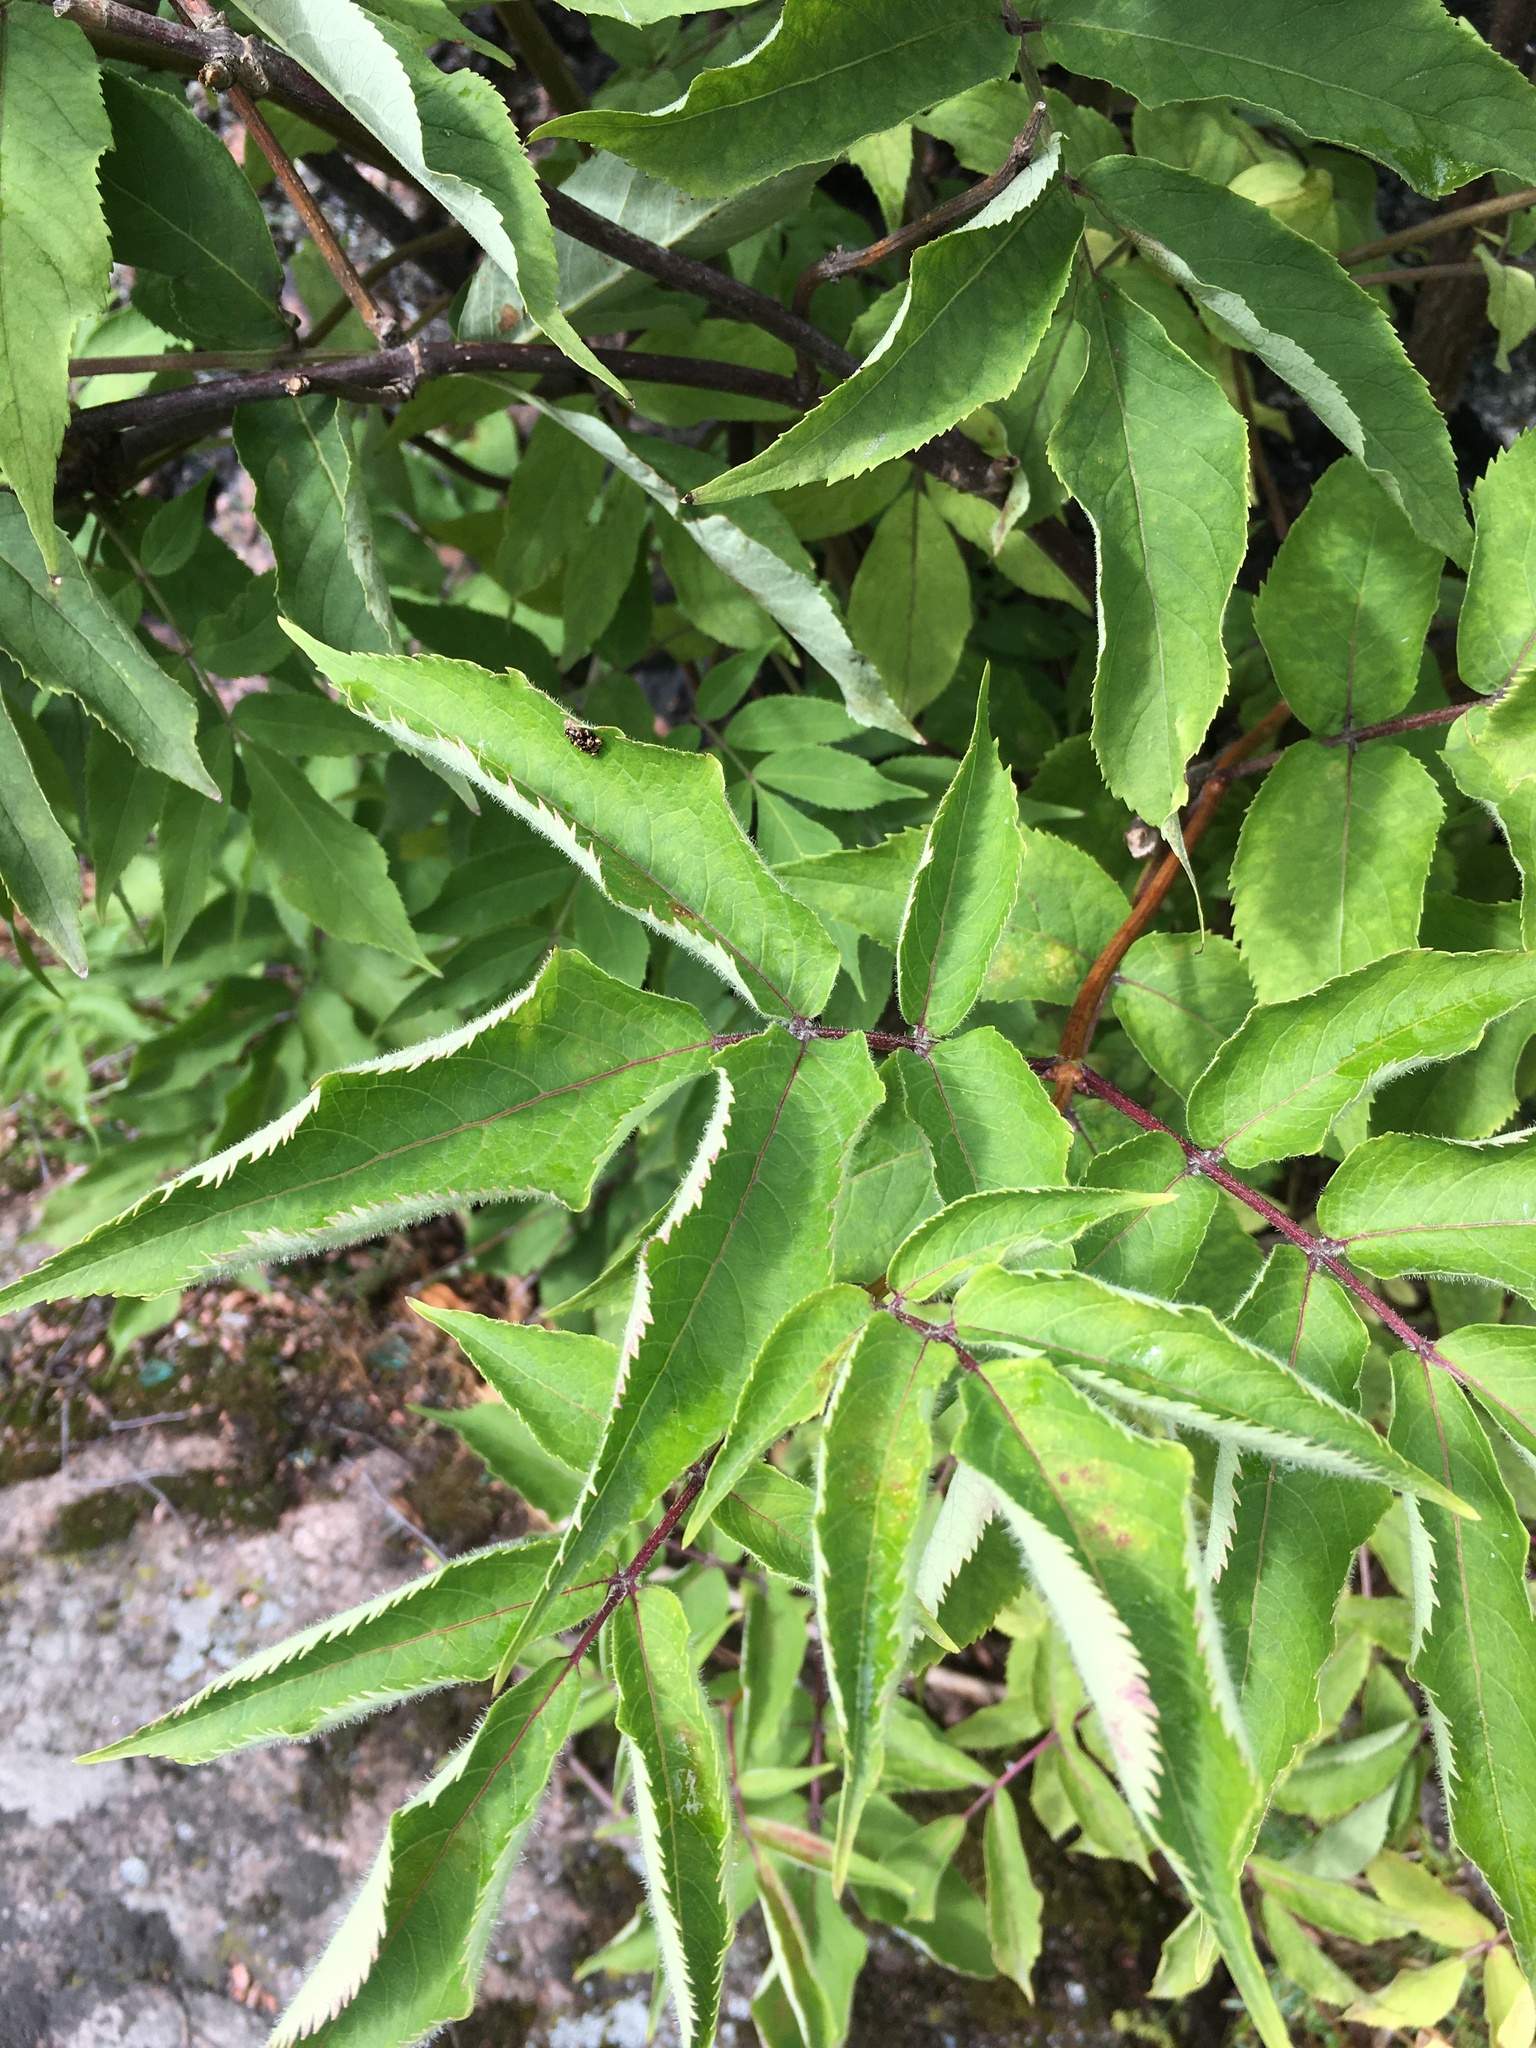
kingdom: Plantae
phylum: Tracheophyta
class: Magnoliopsida
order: Dipsacales
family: Viburnaceae
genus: Sambucus
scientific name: Sambucus racemosa
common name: Red-berried elder
